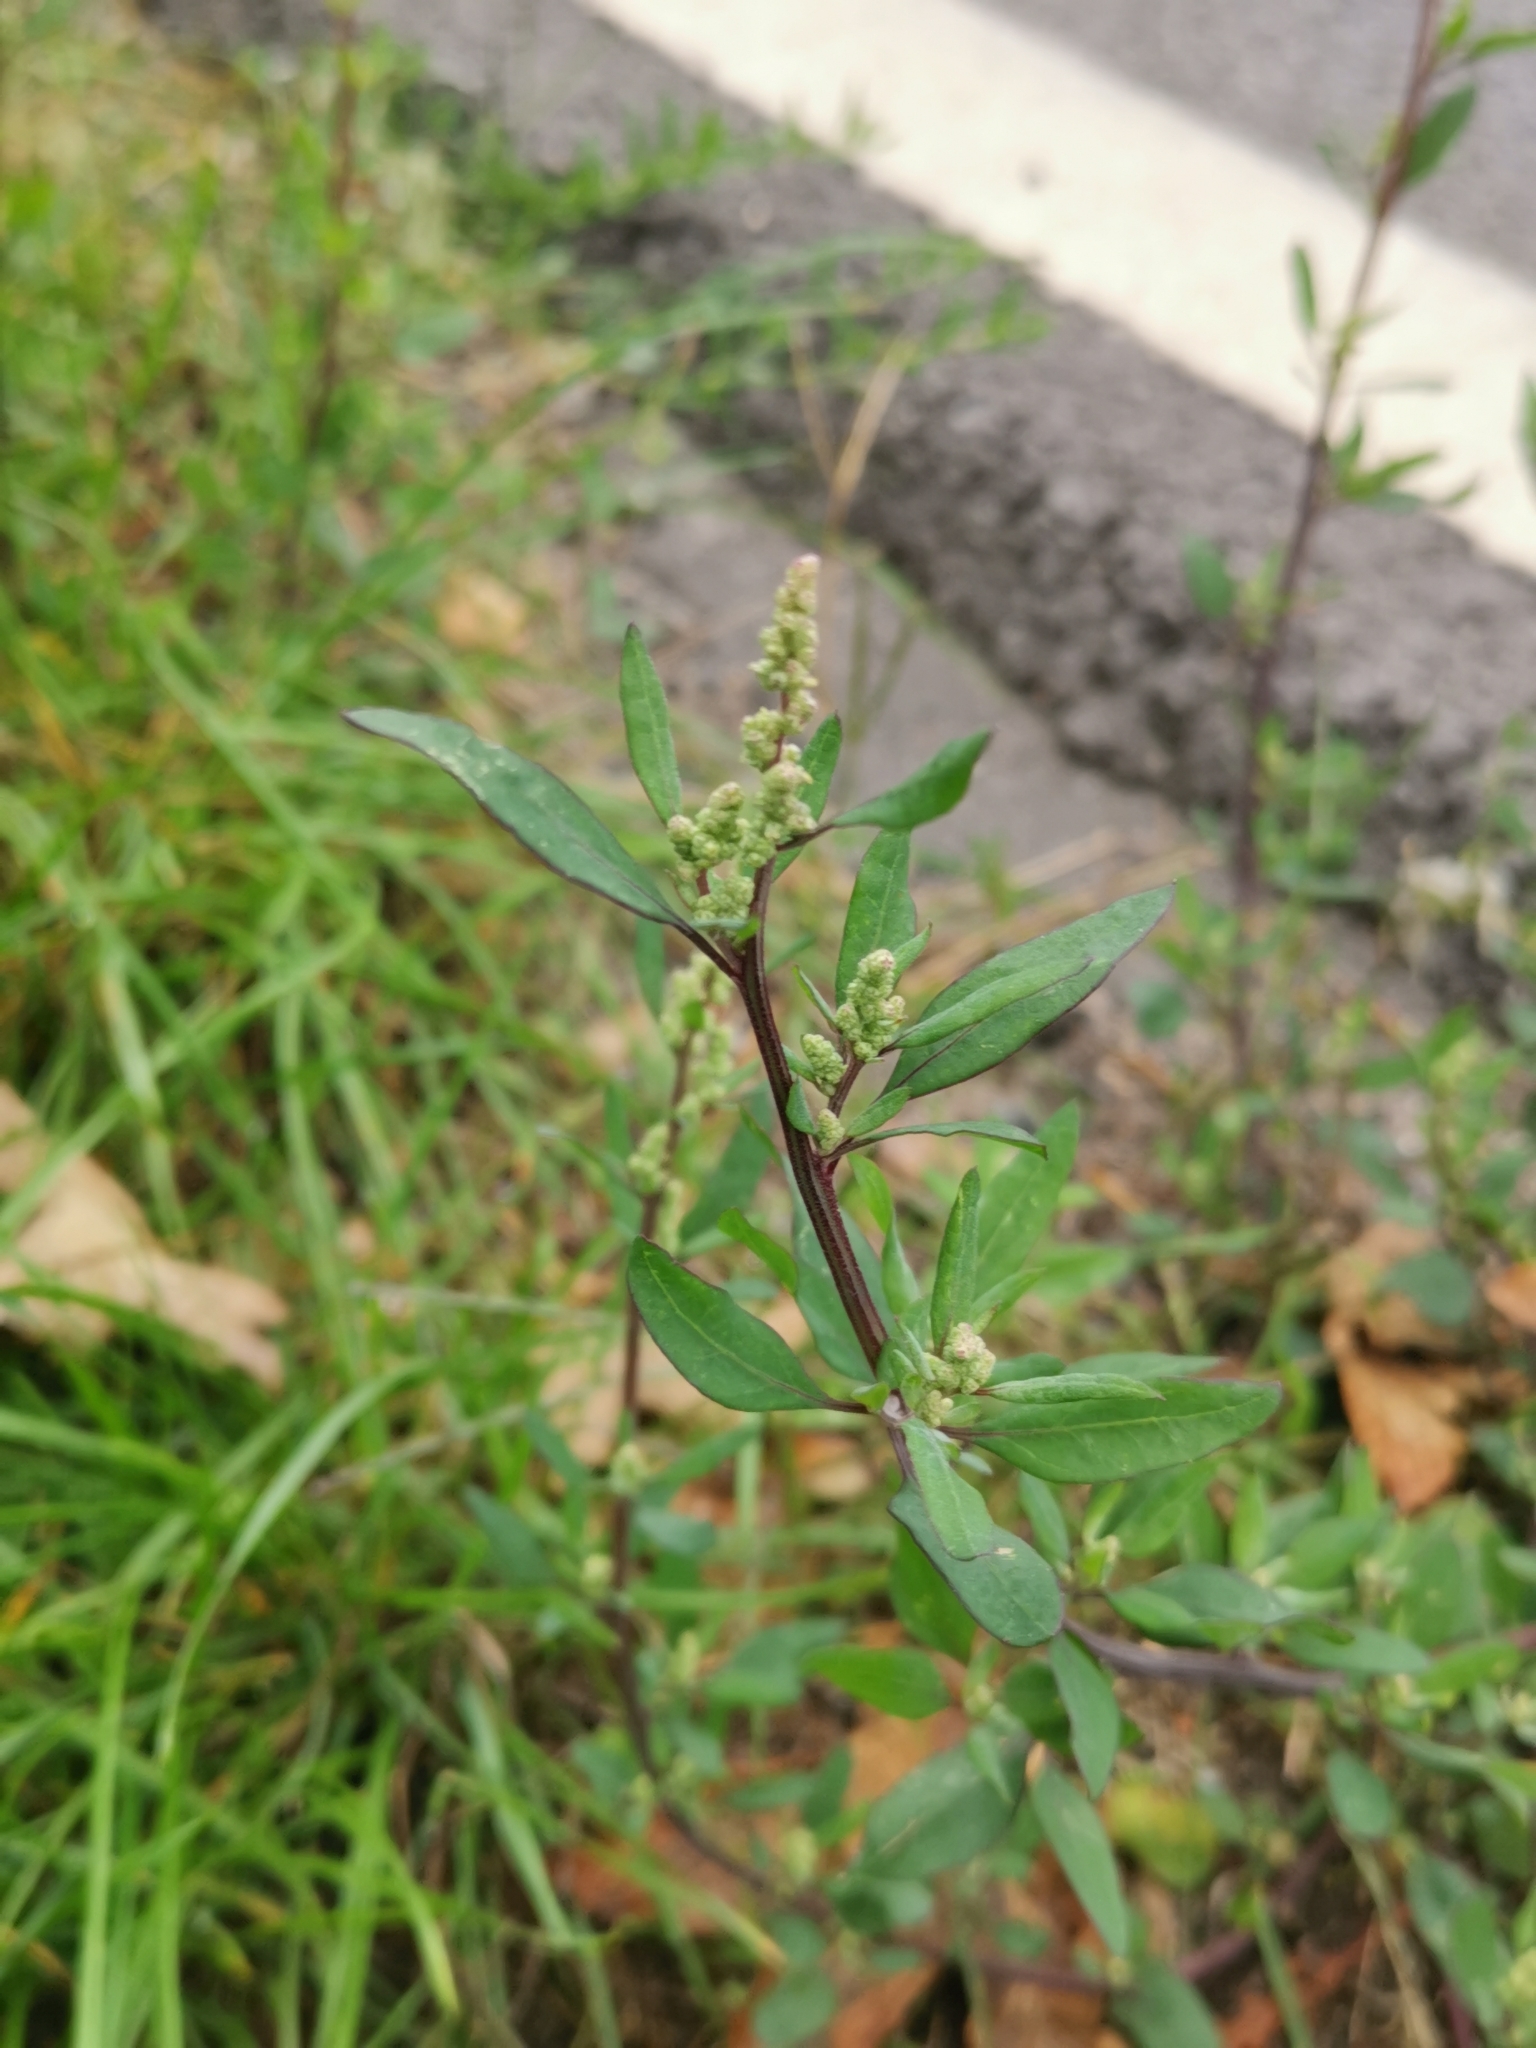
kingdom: Plantae
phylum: Tracheophyta
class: Magnoliopsida
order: Caryophyllales
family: Amaranthaceae
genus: Chenopodium
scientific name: Chenopodium betaceum
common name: Striped goosefoot
